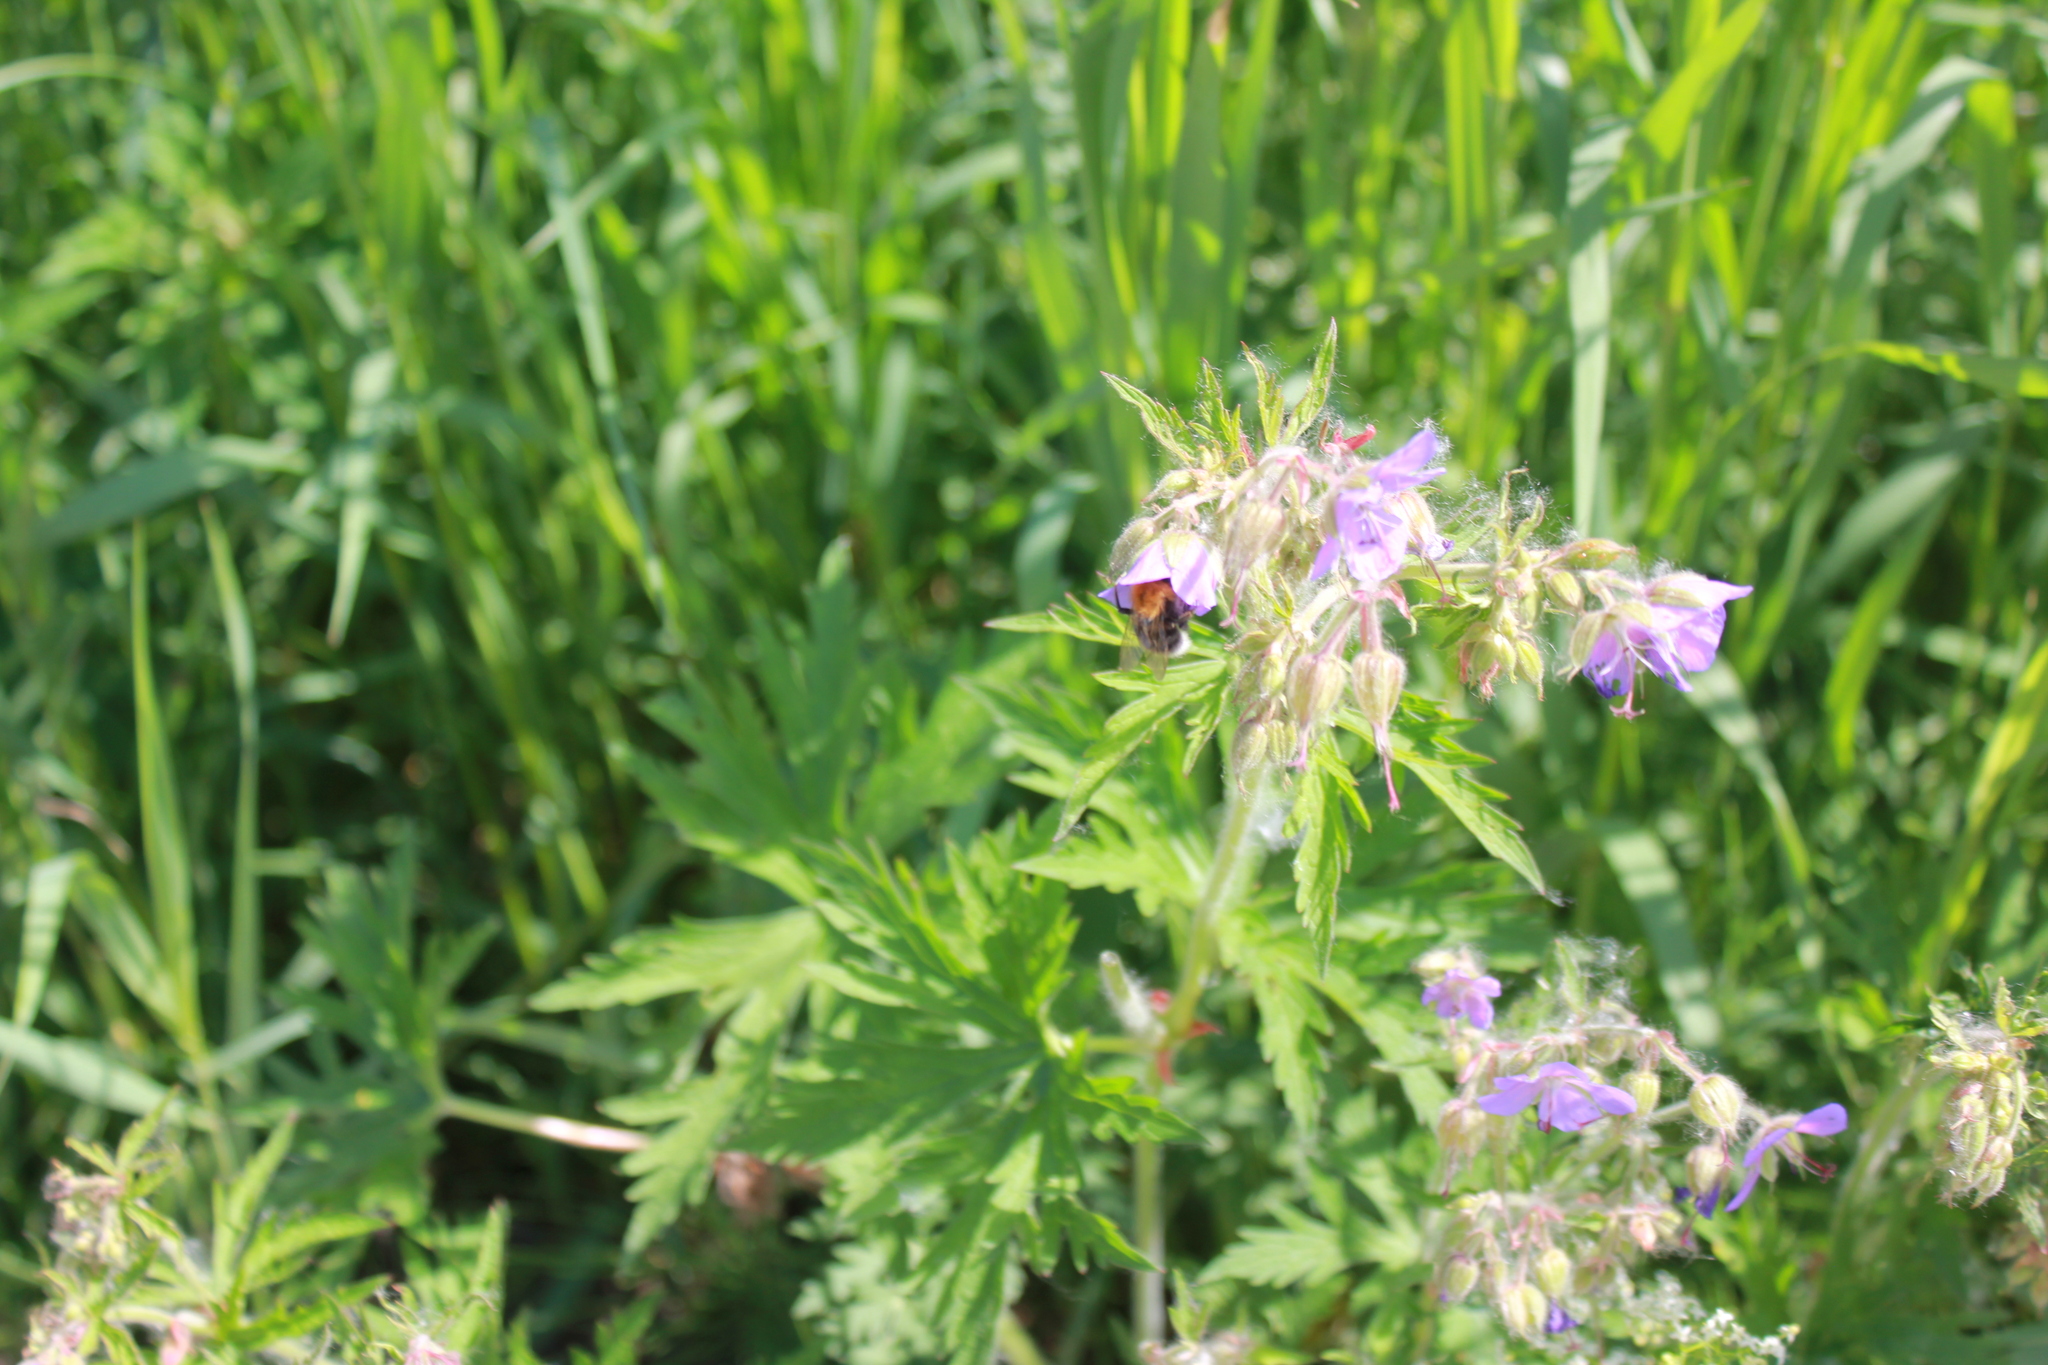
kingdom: Plantae
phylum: Tracheophyta
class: Magnoliopsida
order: Geraniales
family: Geraniaceae
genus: Geranium
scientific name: Geranium pratense
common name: Meadow crane's-bill
